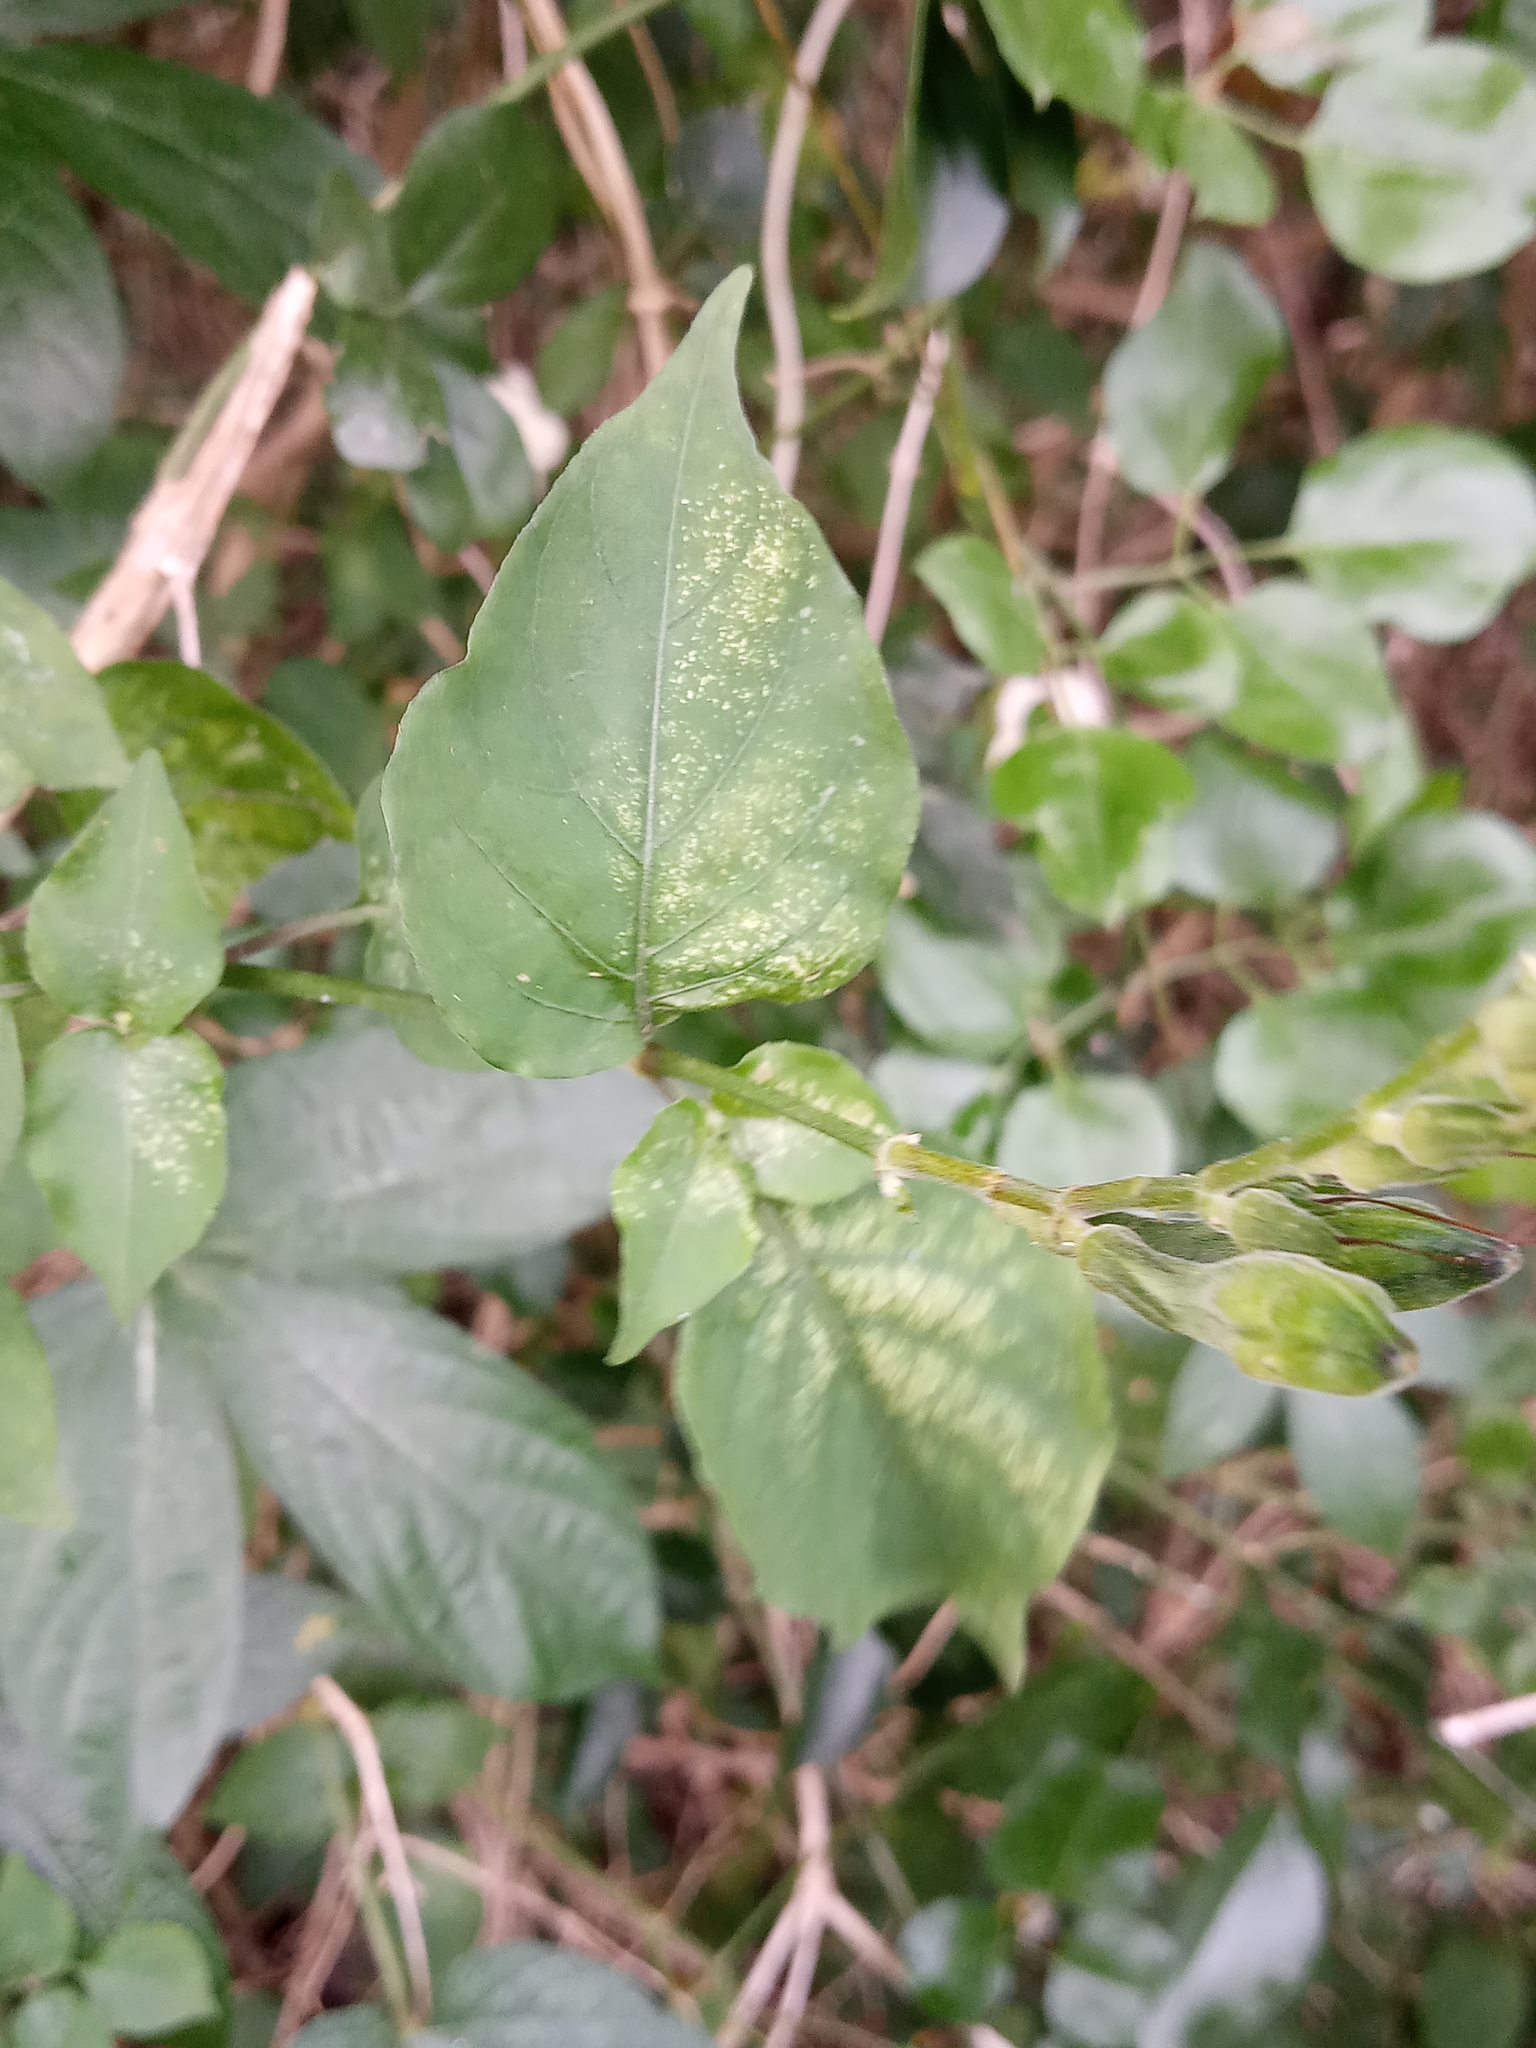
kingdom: Plantae
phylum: Tracheophyta
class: Magnoliopsida
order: Lamiales
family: Acanthaceae
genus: Asystasia
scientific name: Asystasia gangetica
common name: Chinese violet
